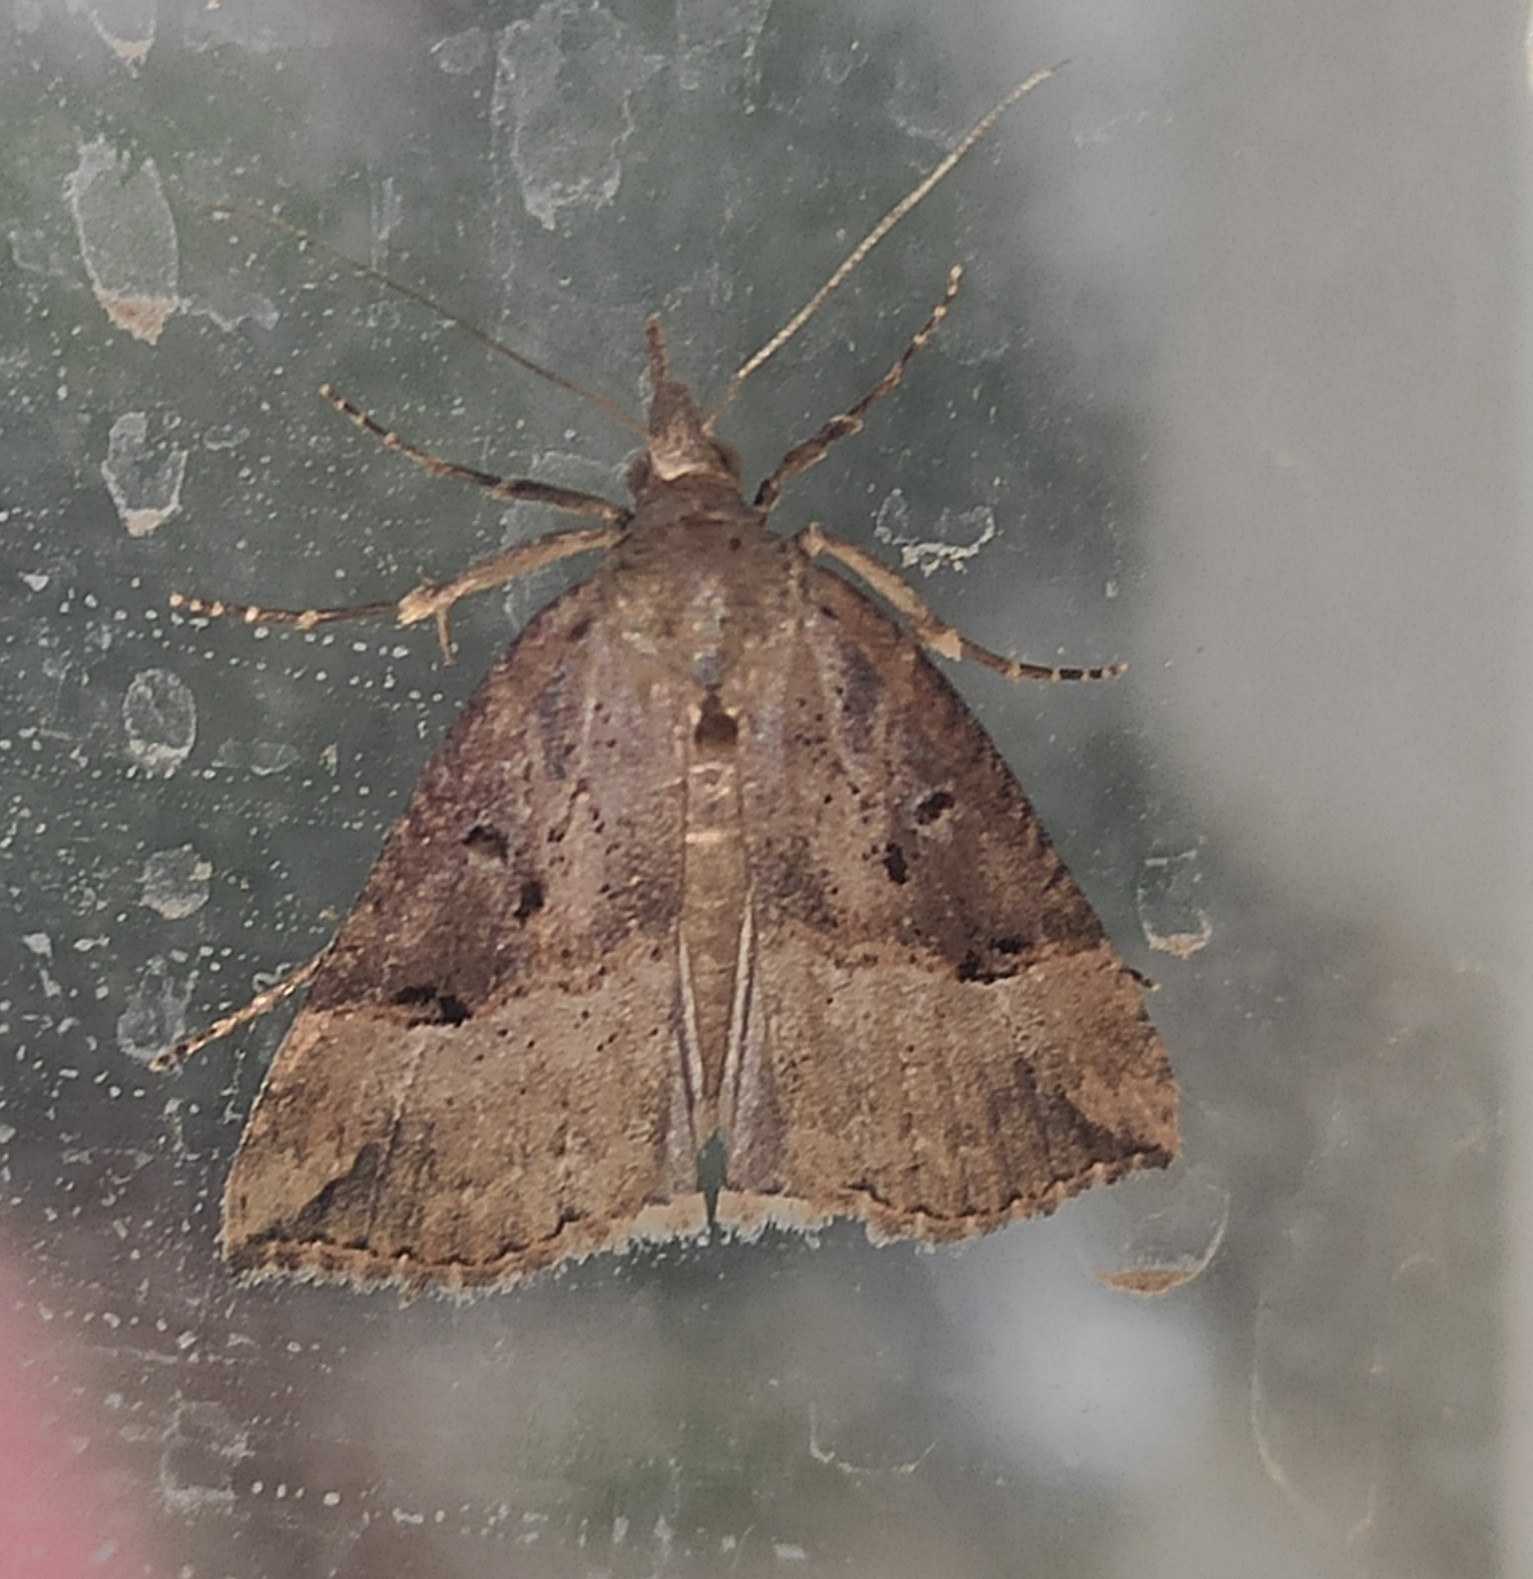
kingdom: Animalia
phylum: Arthropoda
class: Insecta
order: Lepidoptera
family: Erebidae
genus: Hypena
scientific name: Hypena rostralis
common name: Buttoned snout
